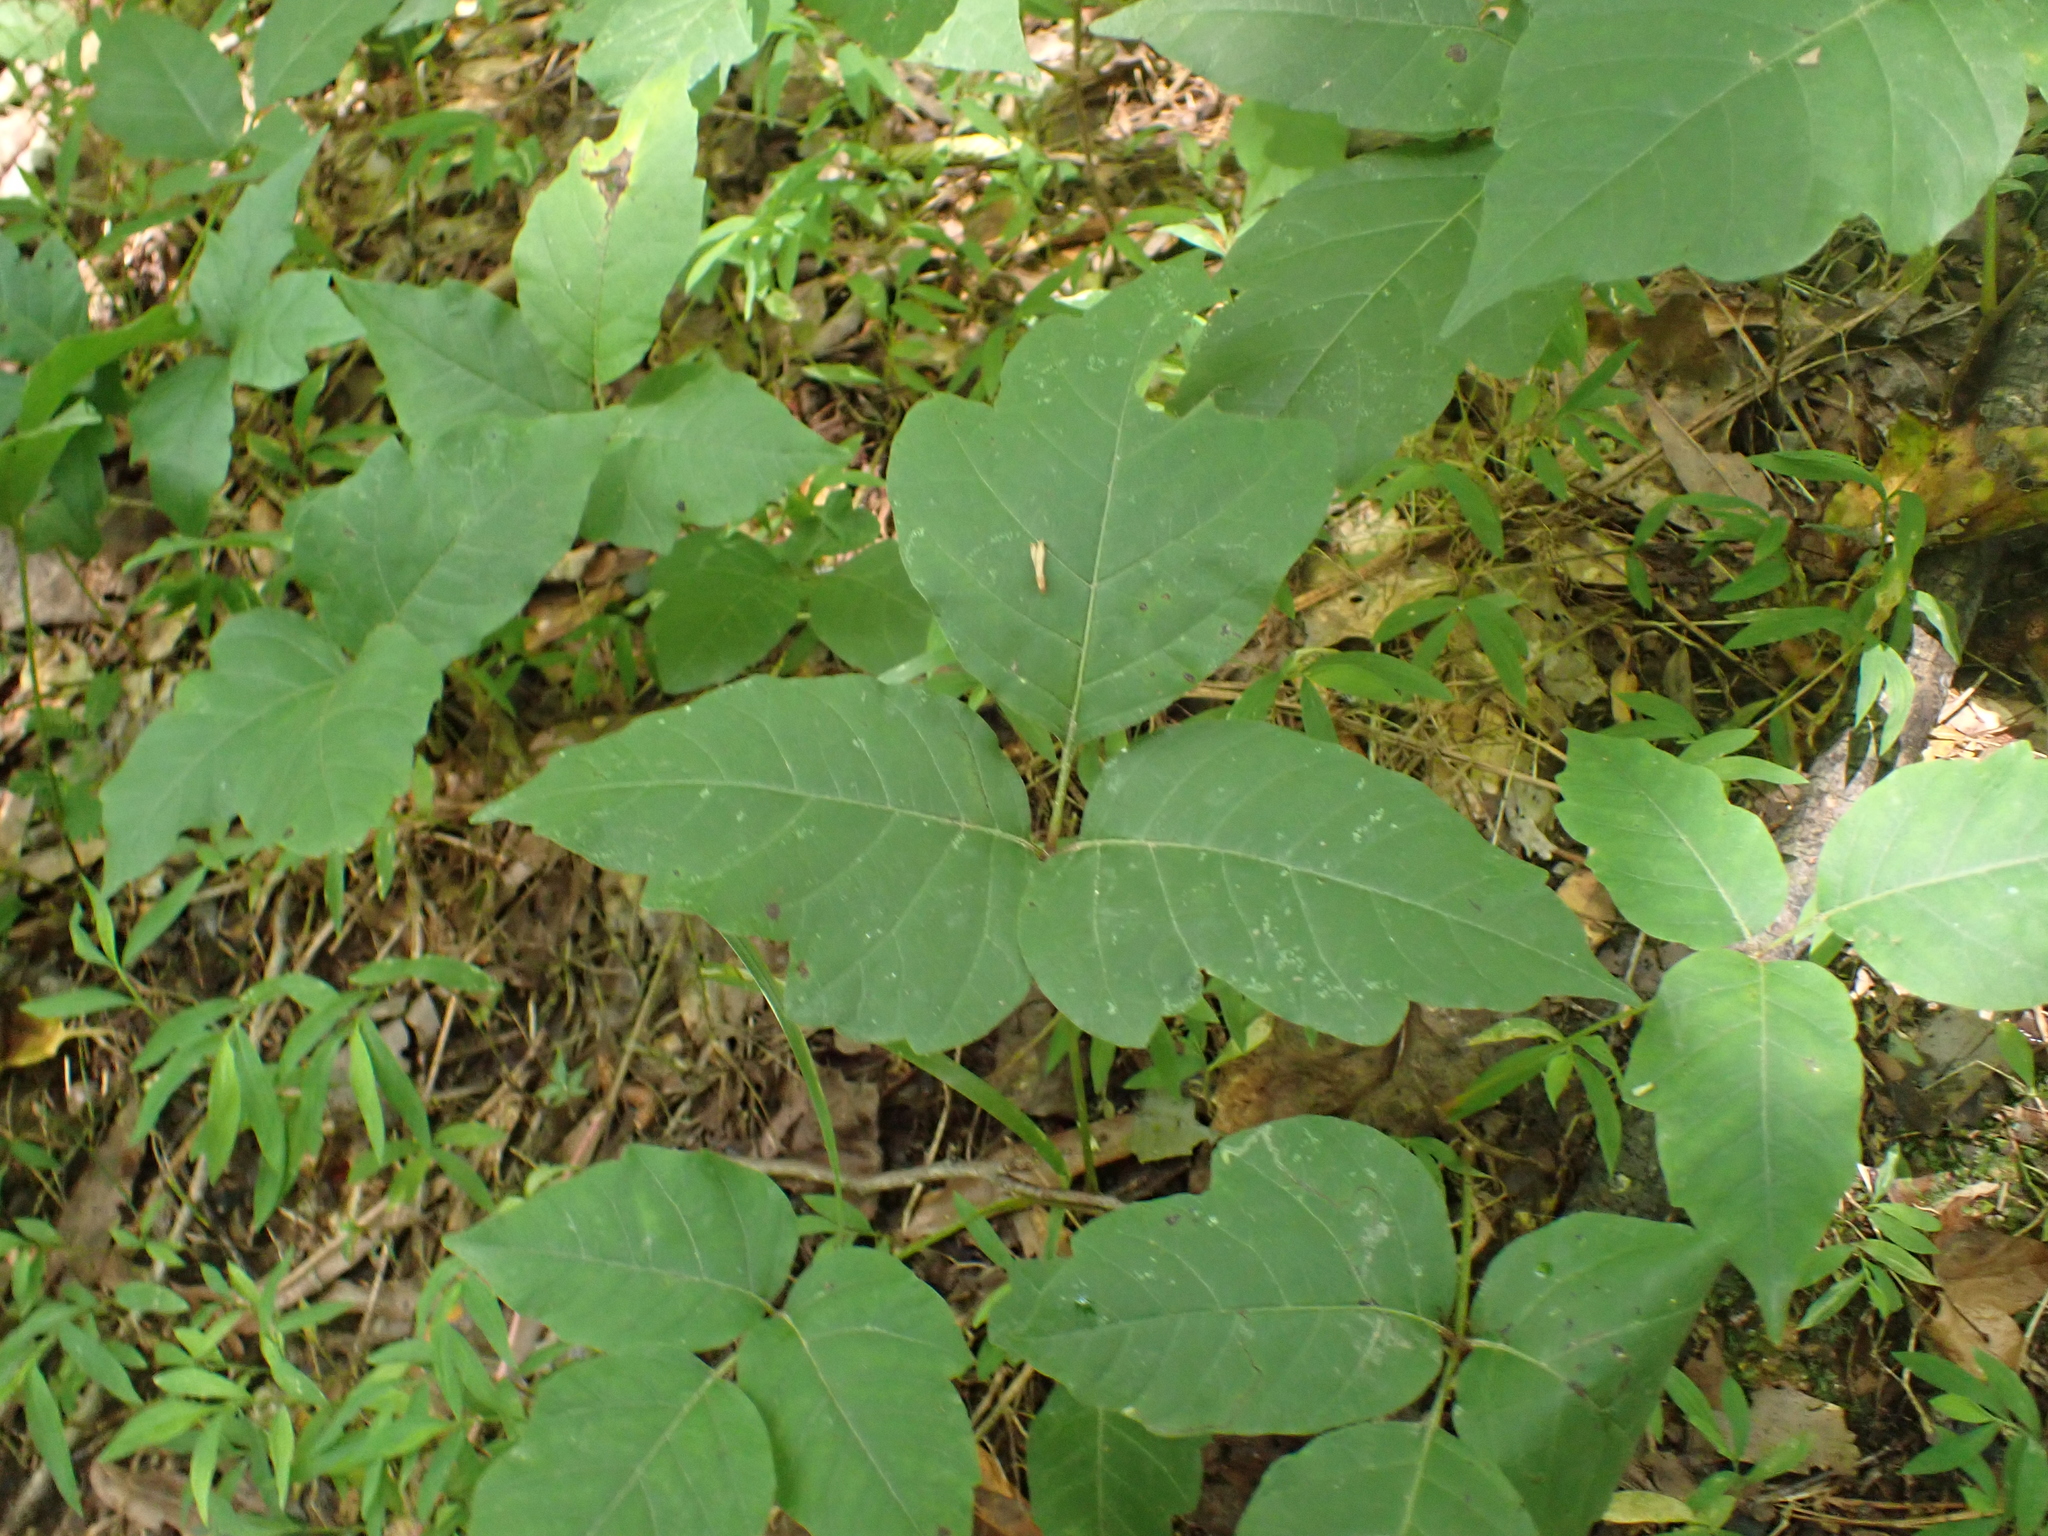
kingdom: Plantae
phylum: Tracheophyta
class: Magnoliopsida
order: Sapindales
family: Anacardiaceae
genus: Toxicodendron
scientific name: Toxicodendron radicans
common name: Poison ivy
